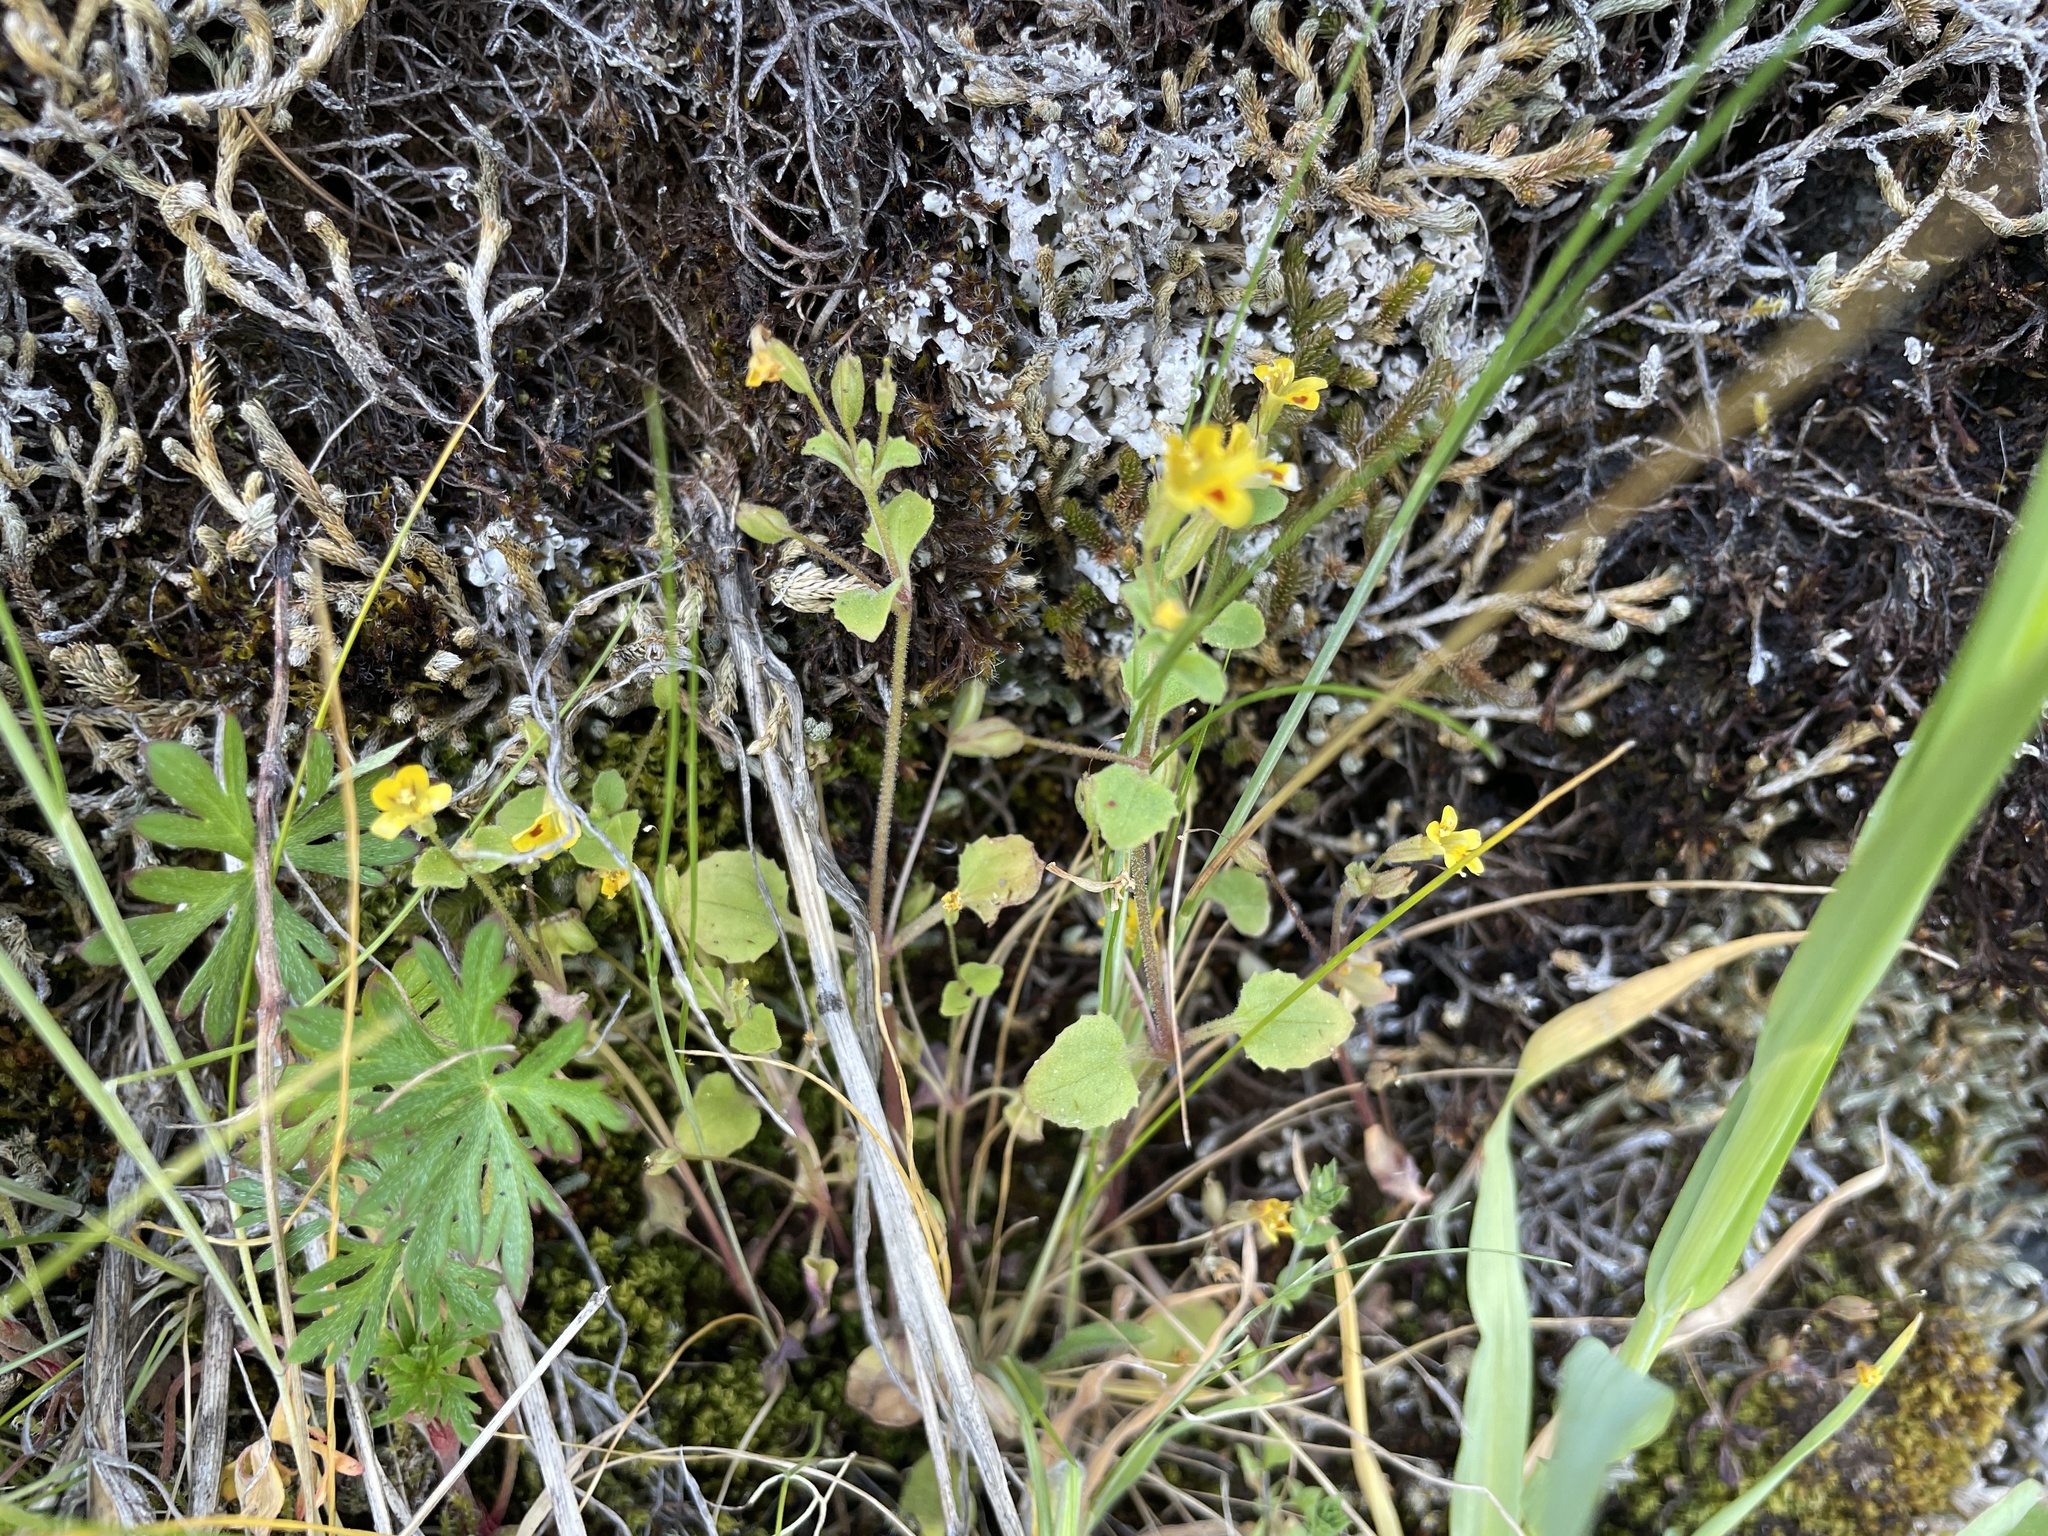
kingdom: Plantae
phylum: Tracheophyta
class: Magnoliopsida
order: Lamiales
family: Phrymaceae
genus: Erythranthe
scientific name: Erythranthe alsinoides
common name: Chickweed monkeyflower
